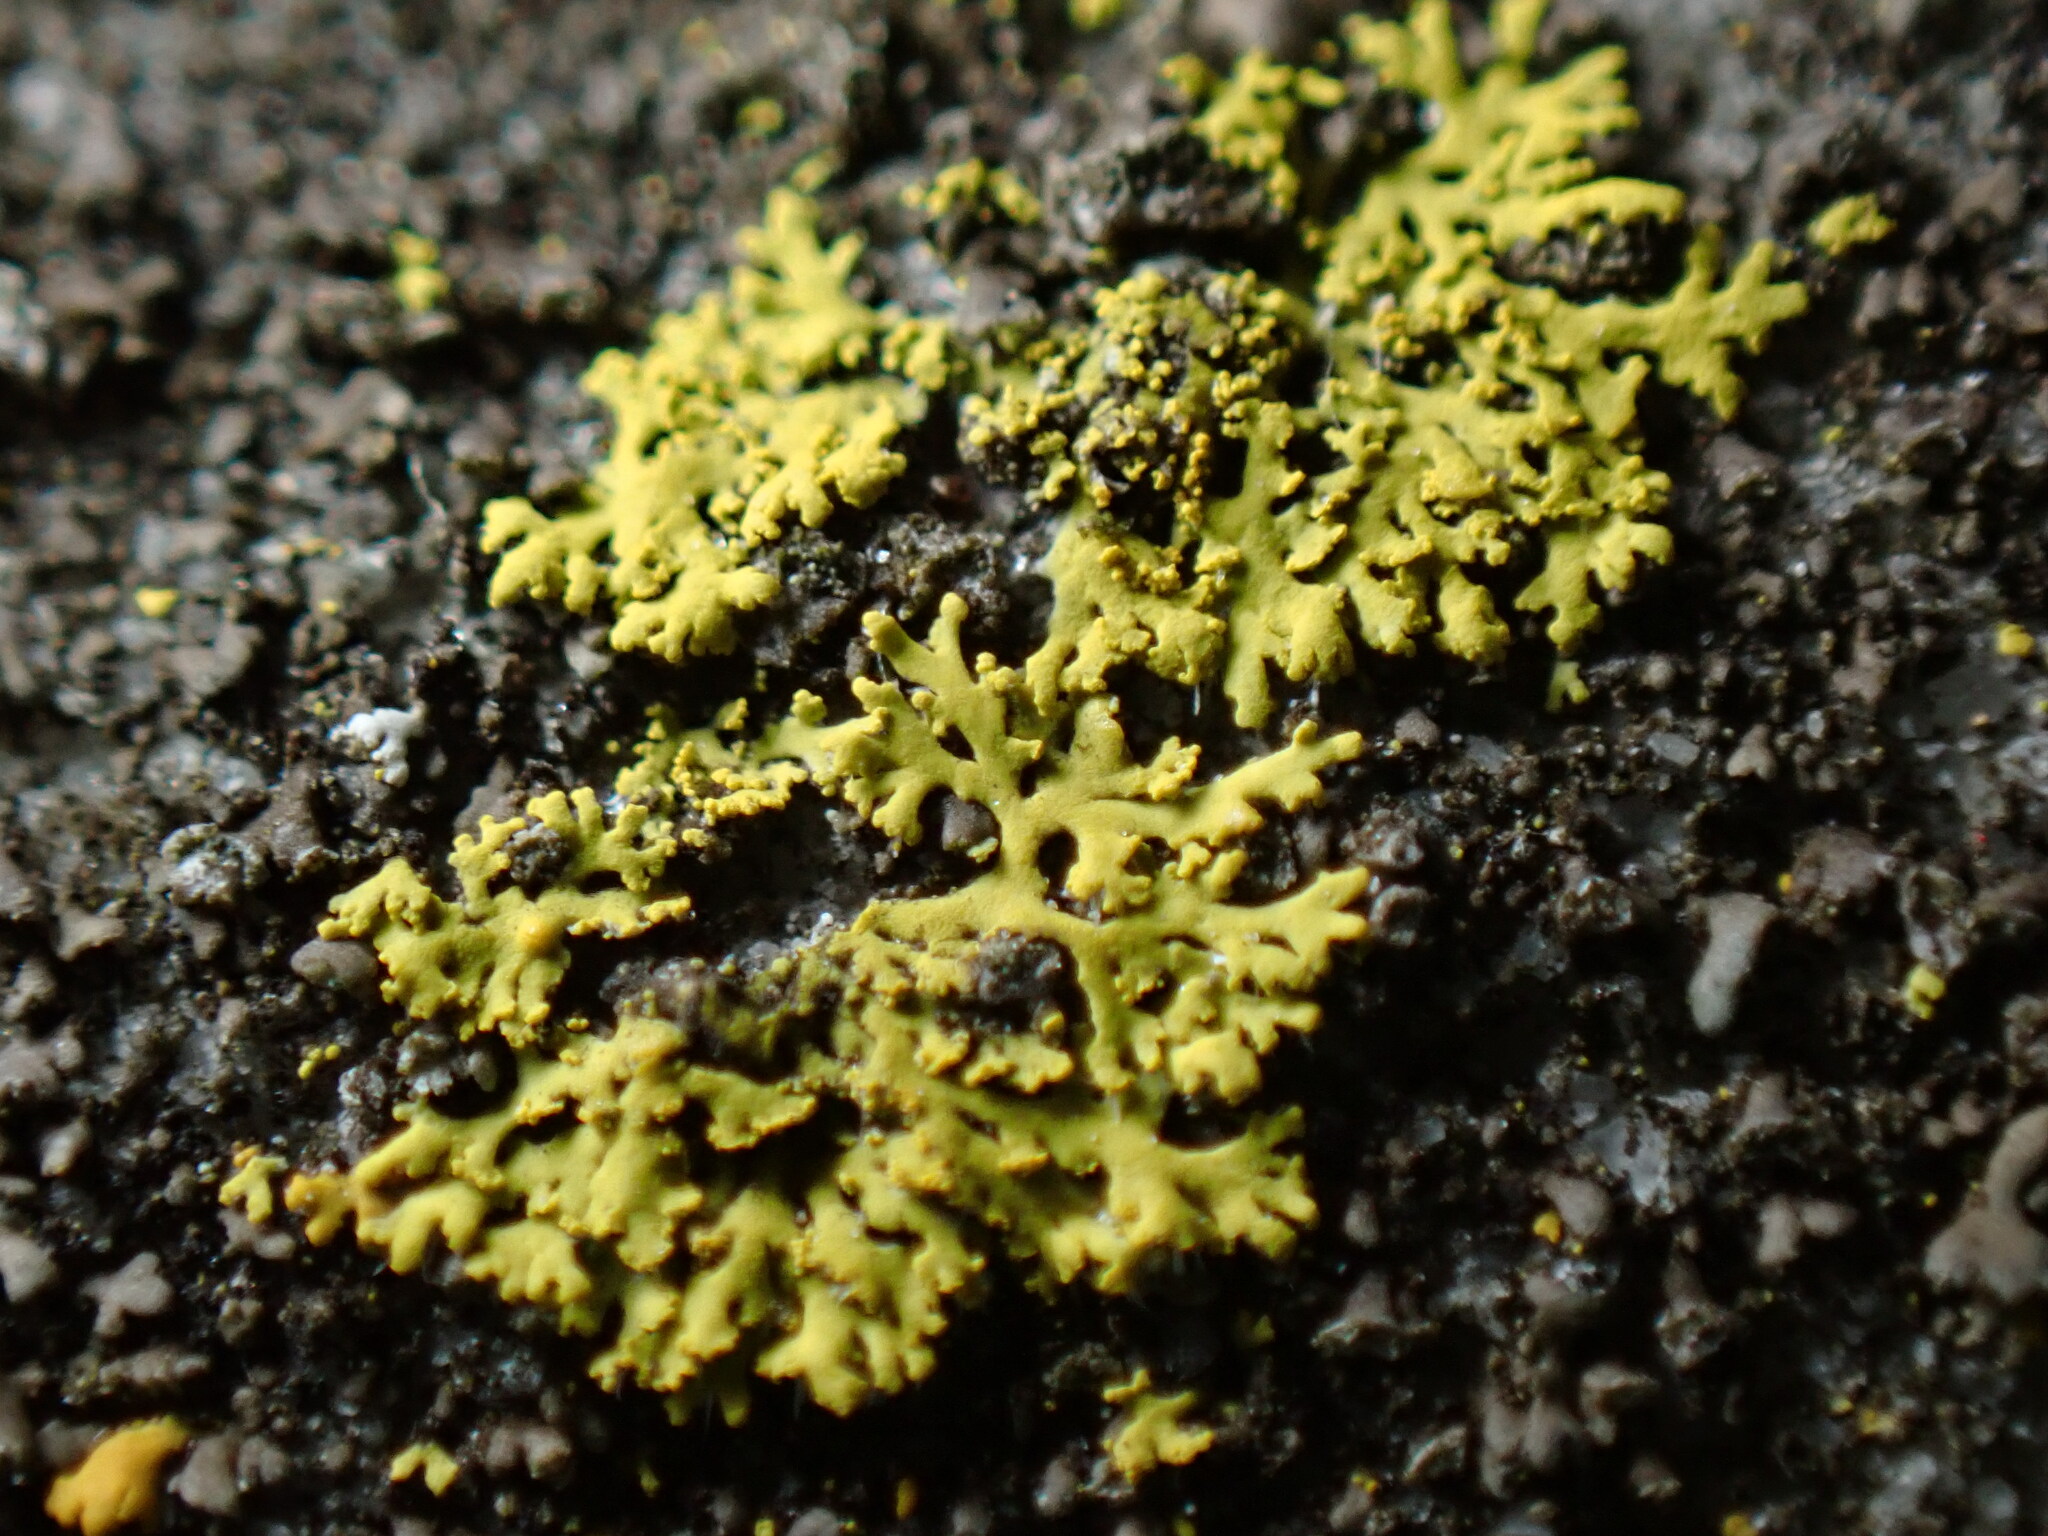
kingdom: Fungi
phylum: Ascomycota
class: Candelariomycetes
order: Candelariales
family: Candelariaceae
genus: Candelaria
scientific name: Candelaria concolor
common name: Candleflame lichen
